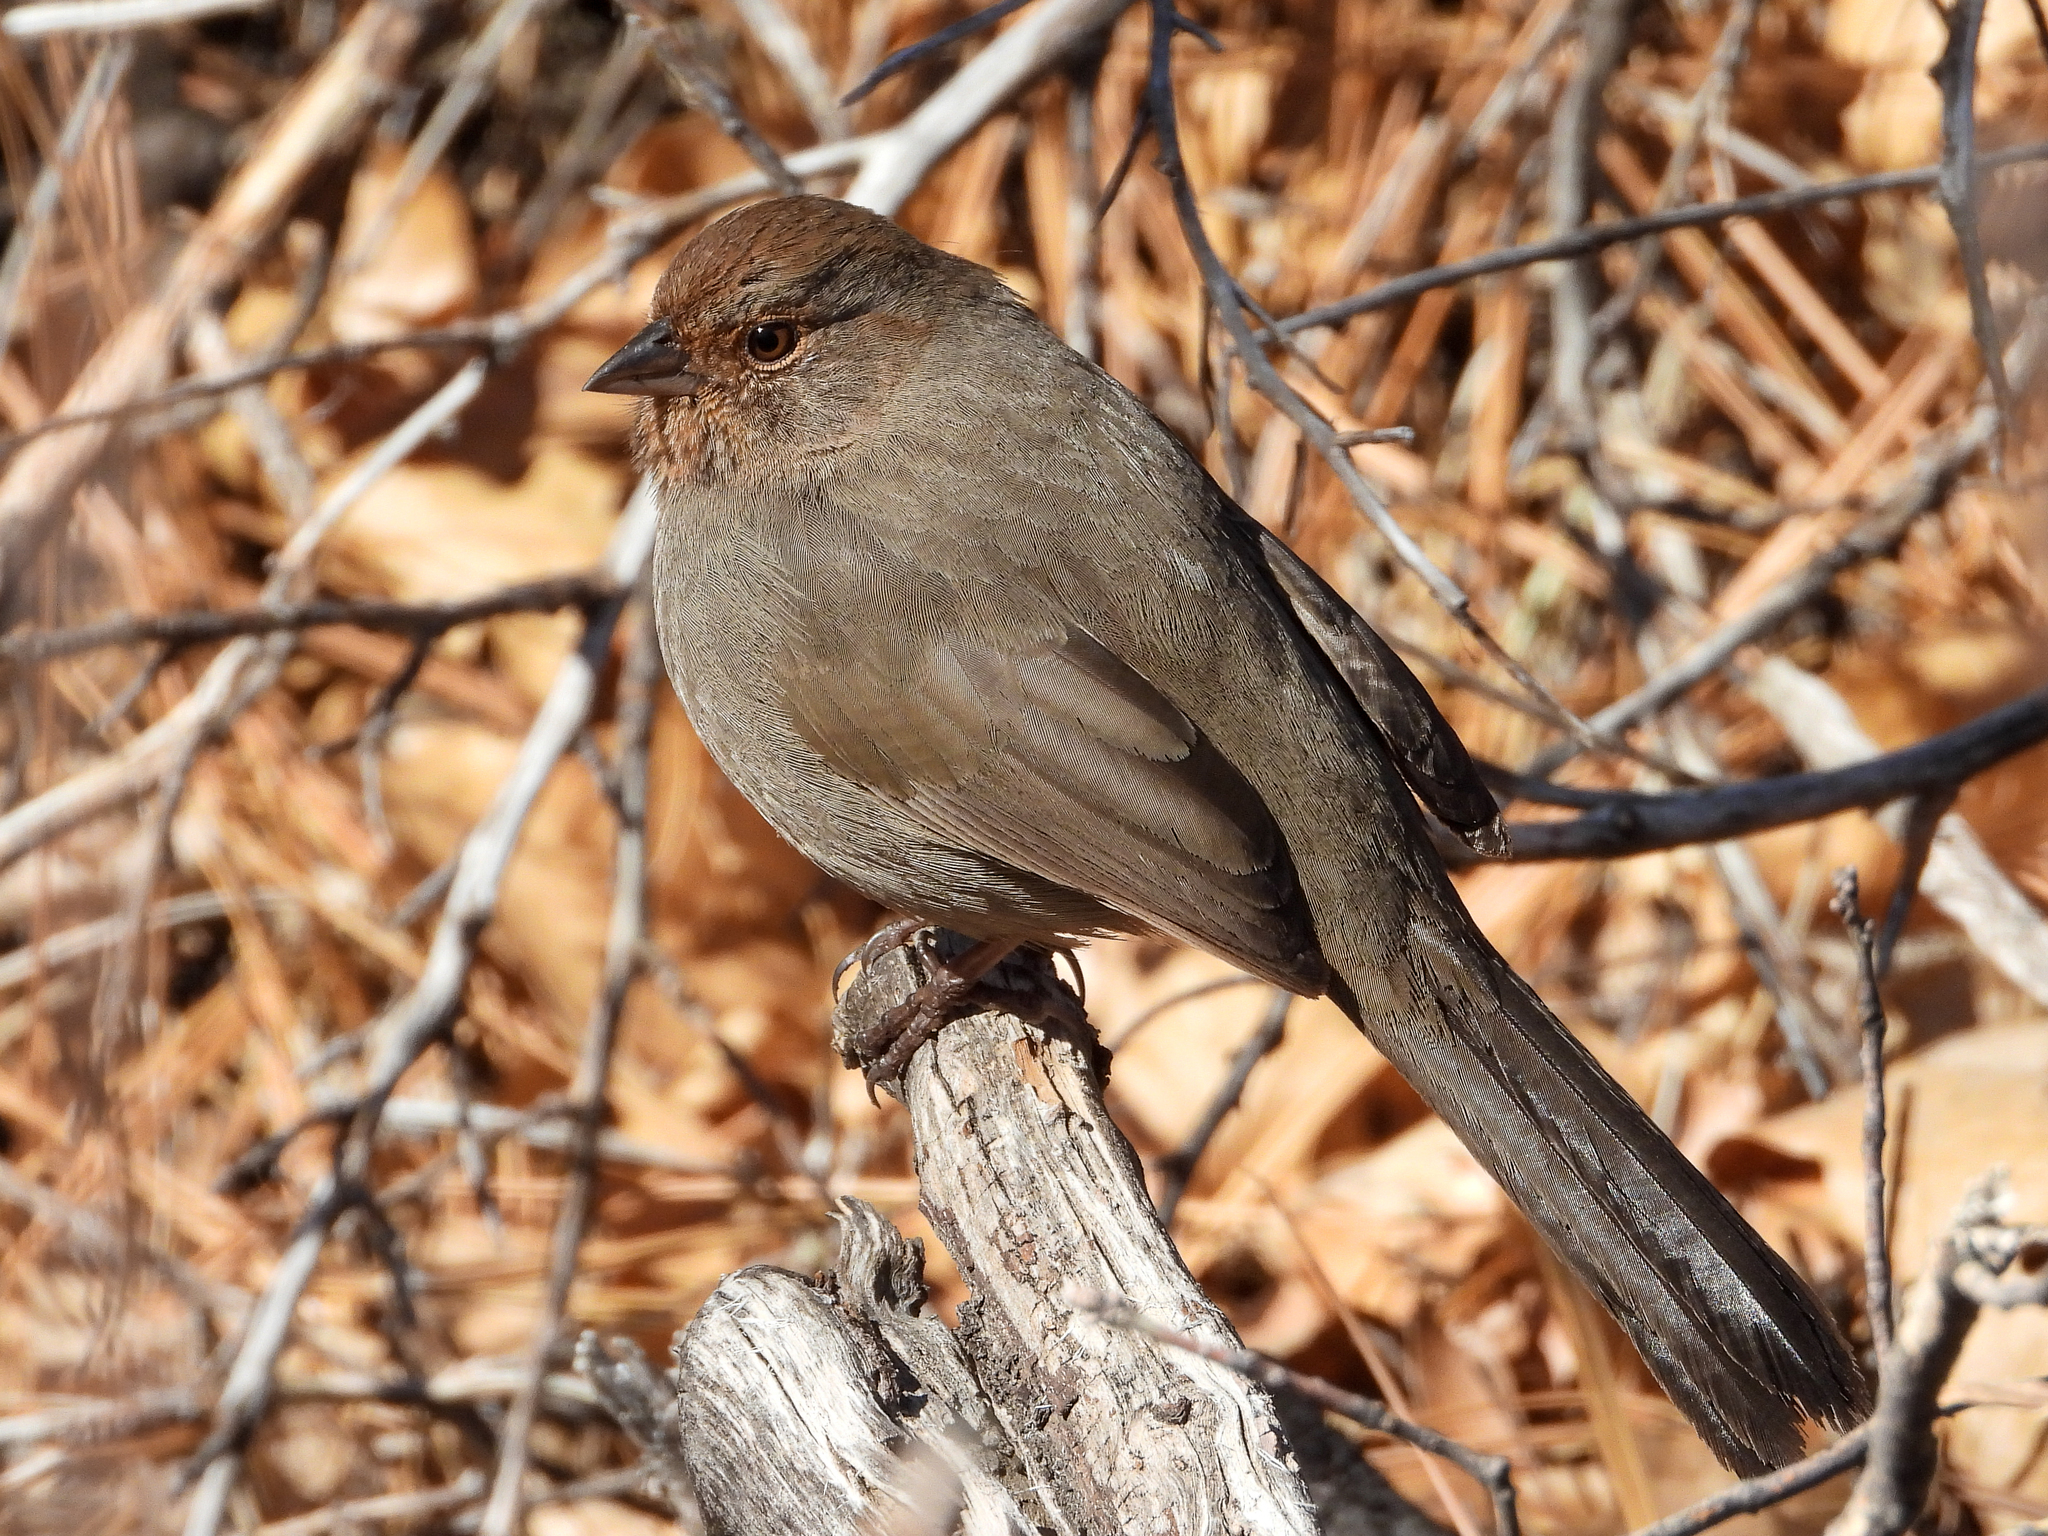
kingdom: Animalia
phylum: Chordata
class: Aves
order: Passeriformes
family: Passerellidae
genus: Melozone
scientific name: Melozone crissalis
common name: California towhee
